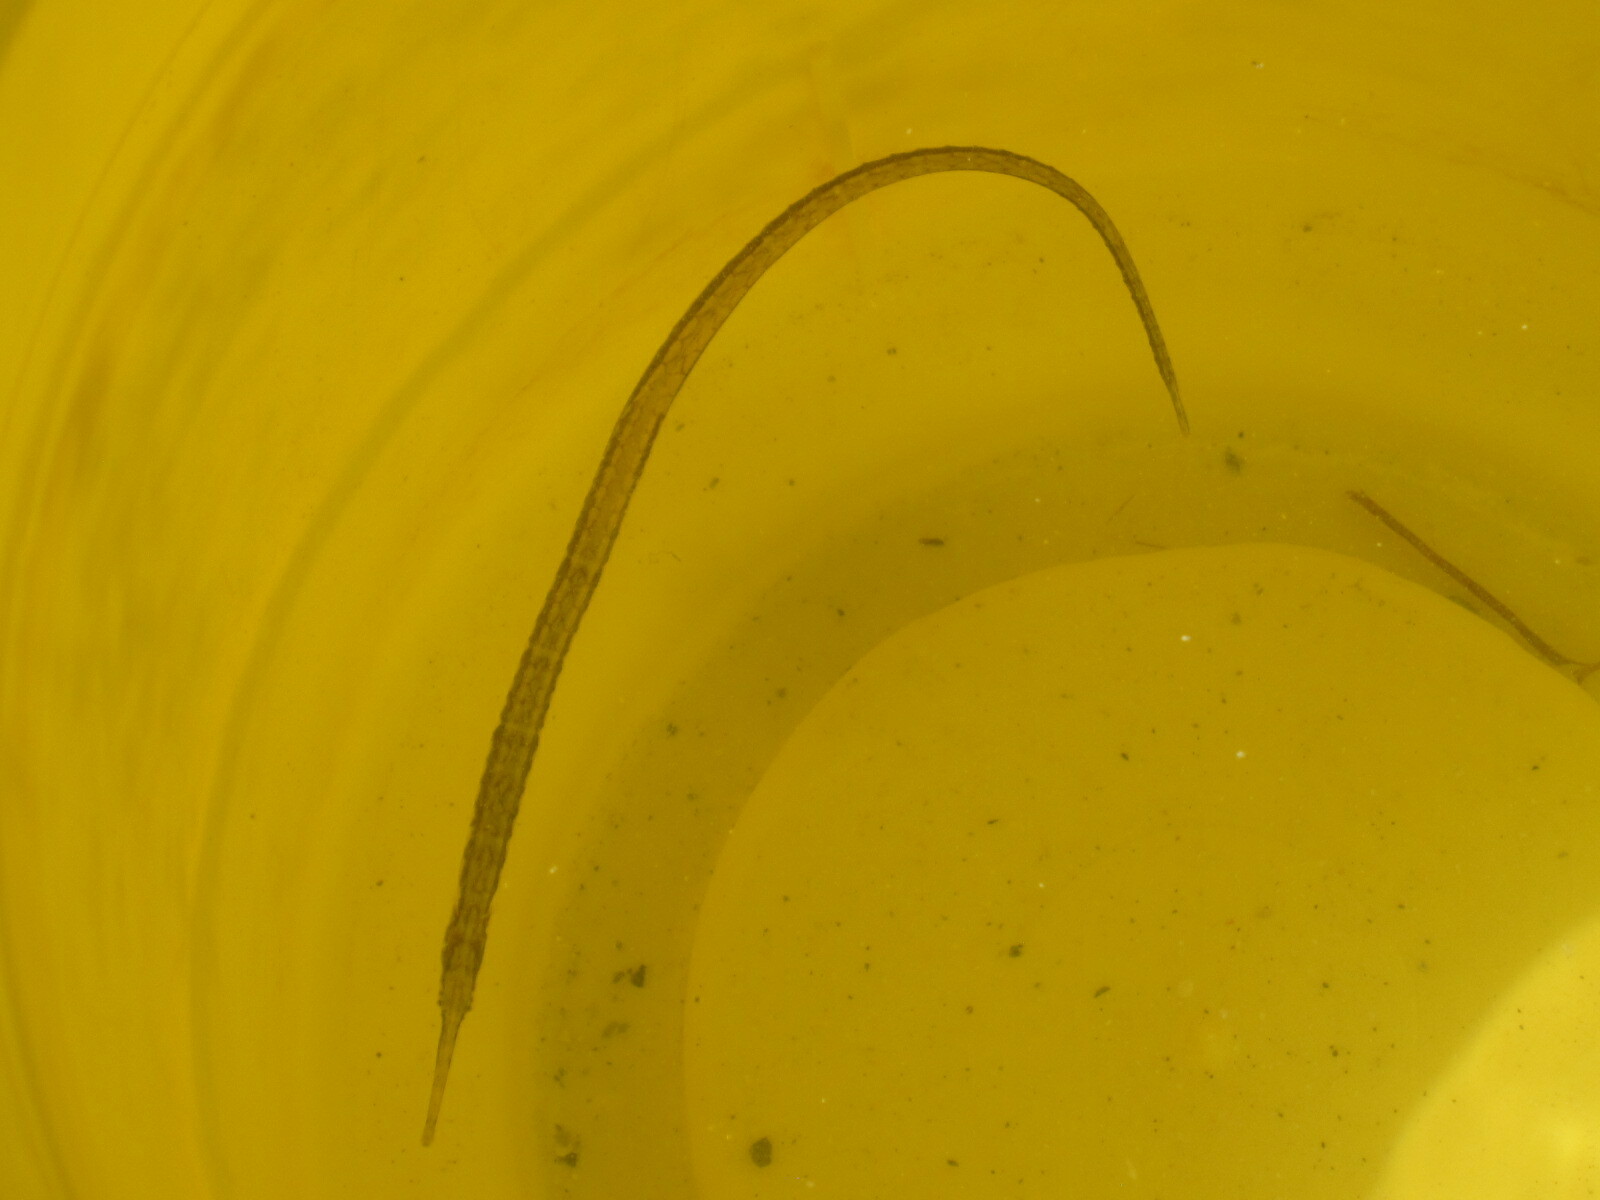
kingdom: Animalia
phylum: Chordata
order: Syngnathiformes
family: Syngnathidae
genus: Syngnathus
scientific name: Syngnathus louisianae
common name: Chain pipefish
